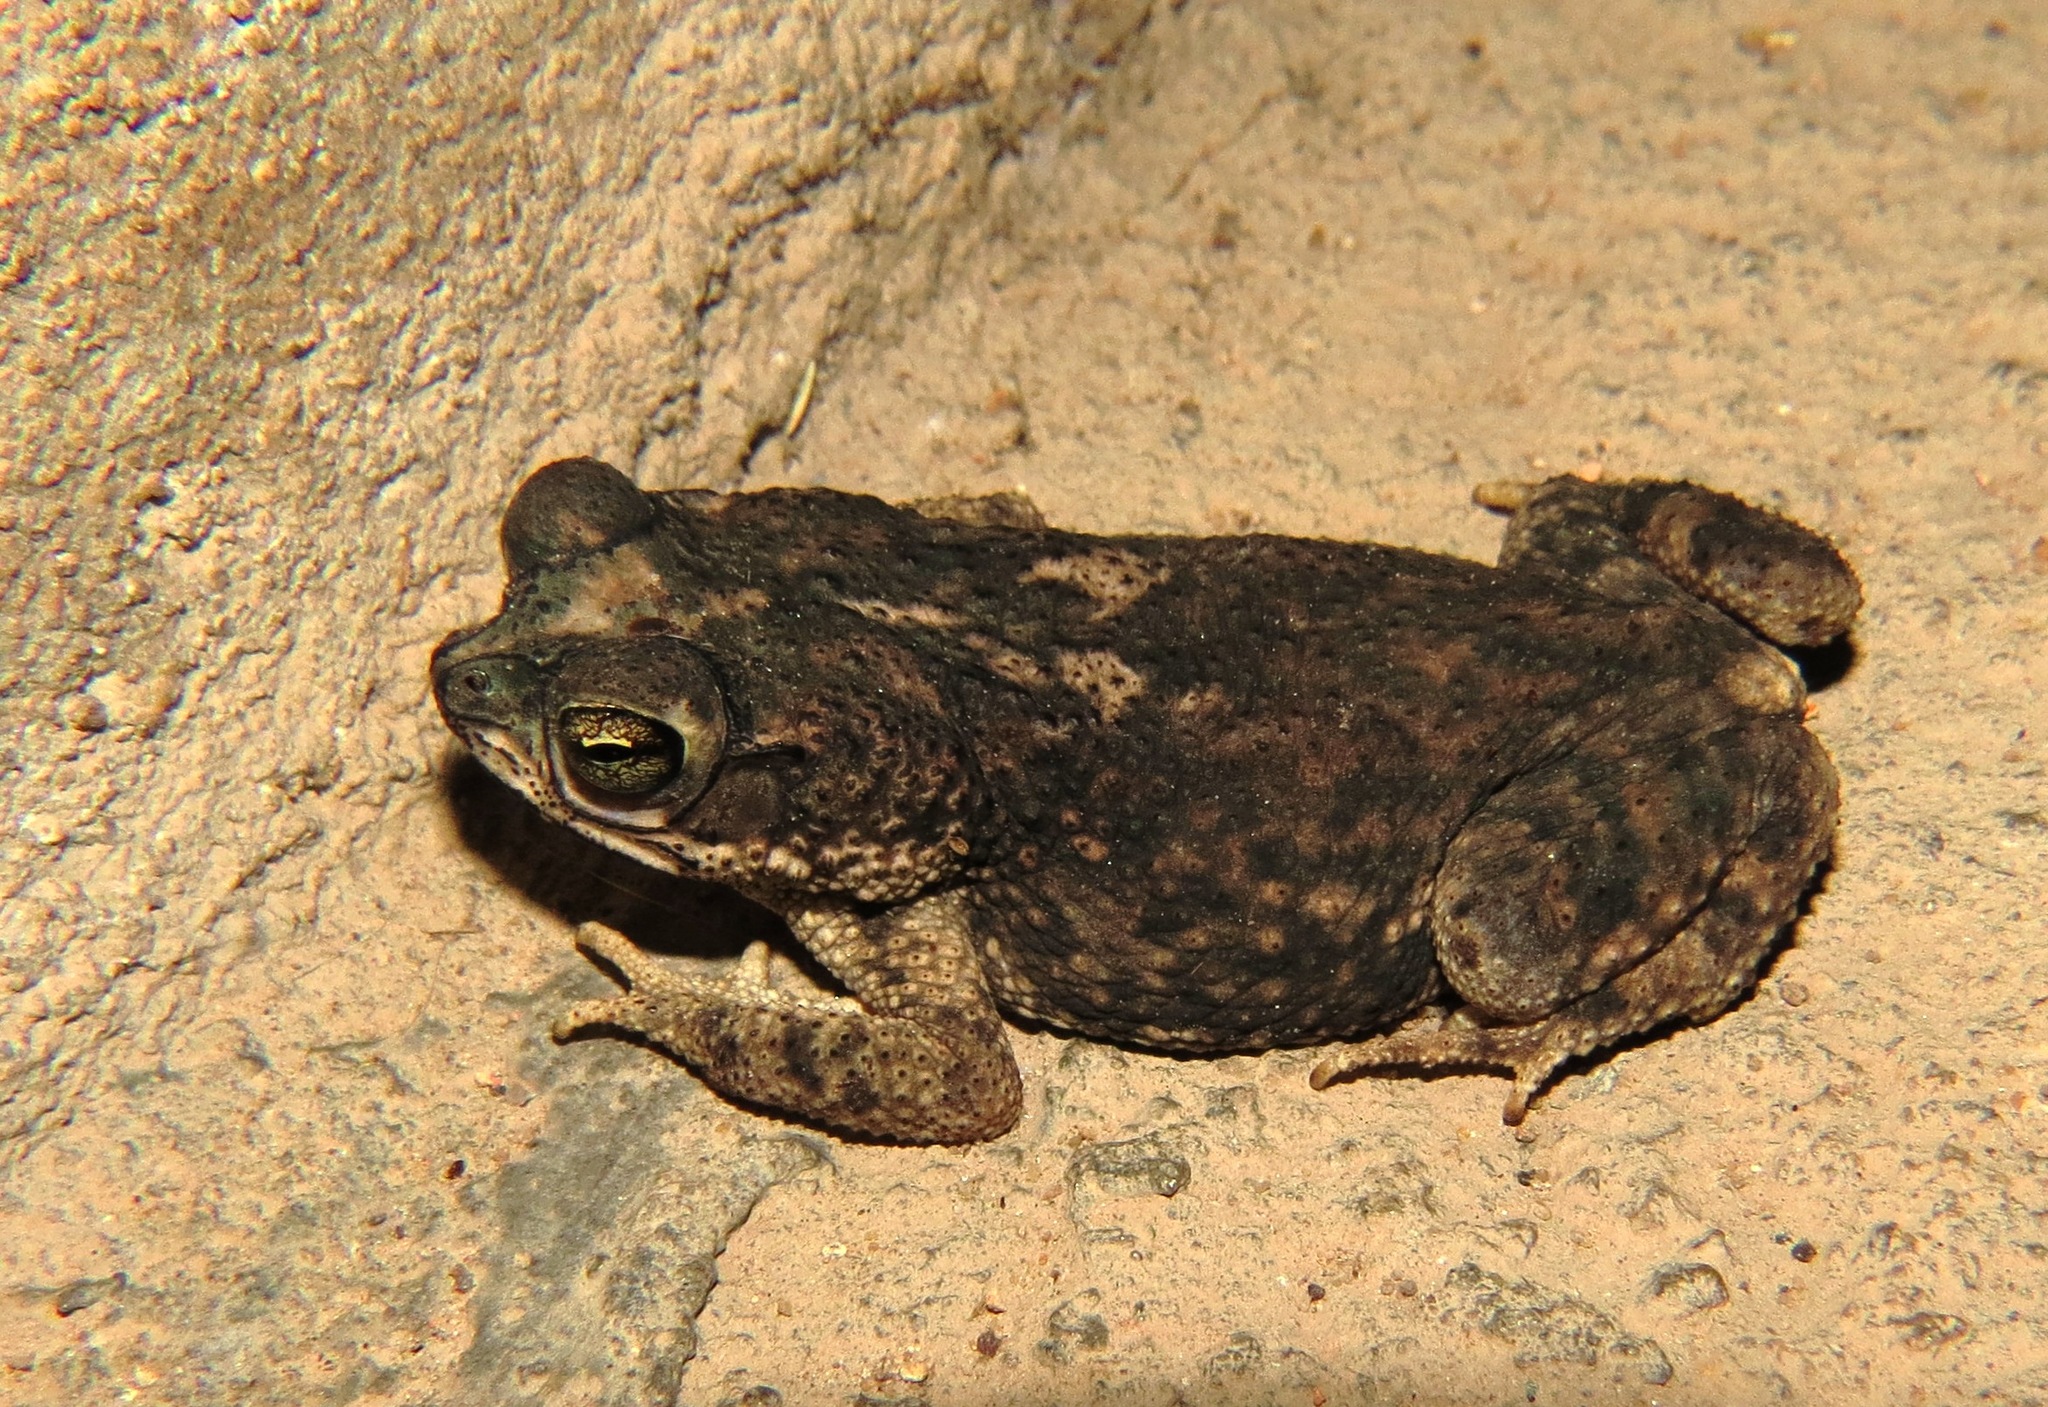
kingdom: Animalia
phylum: Chordata
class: Amphibia
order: Anura
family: Bufonidae
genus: Rhinella
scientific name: Rhinella merianae
